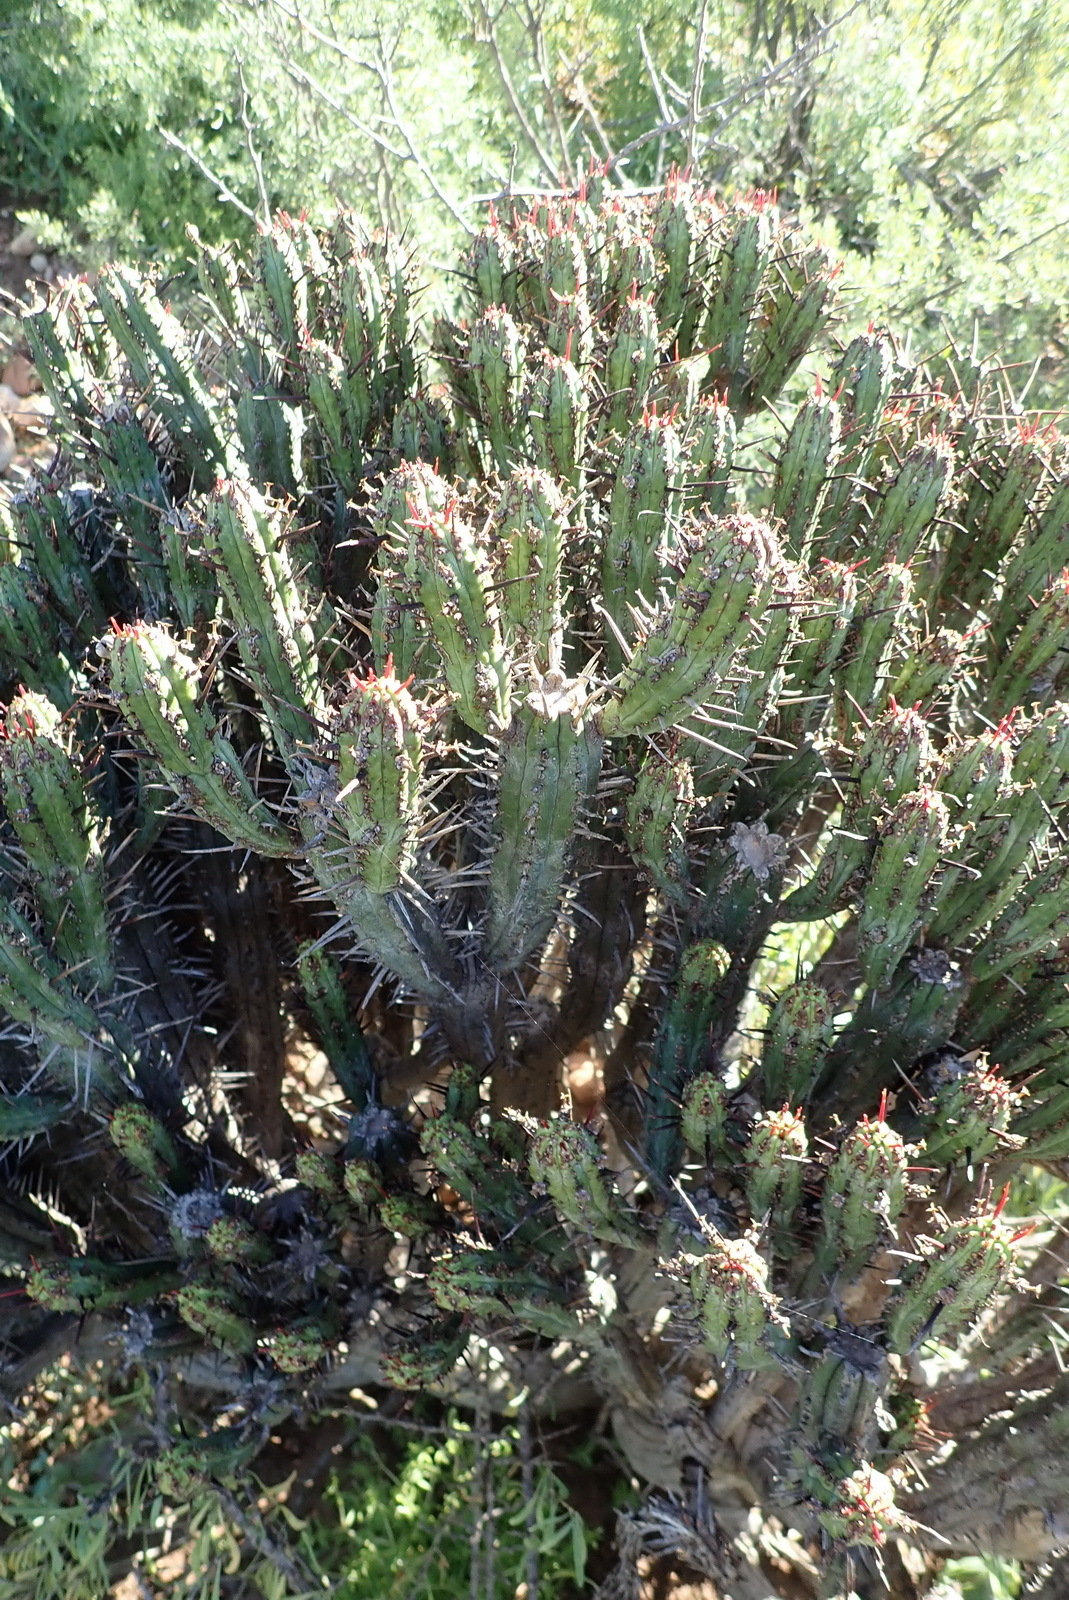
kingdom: Plantae
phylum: Tracheophyta
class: Magnoliopsida
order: Malpighiales
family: Euphorbiaceae
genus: Euphorbia
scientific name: Euphorbia heptagona
